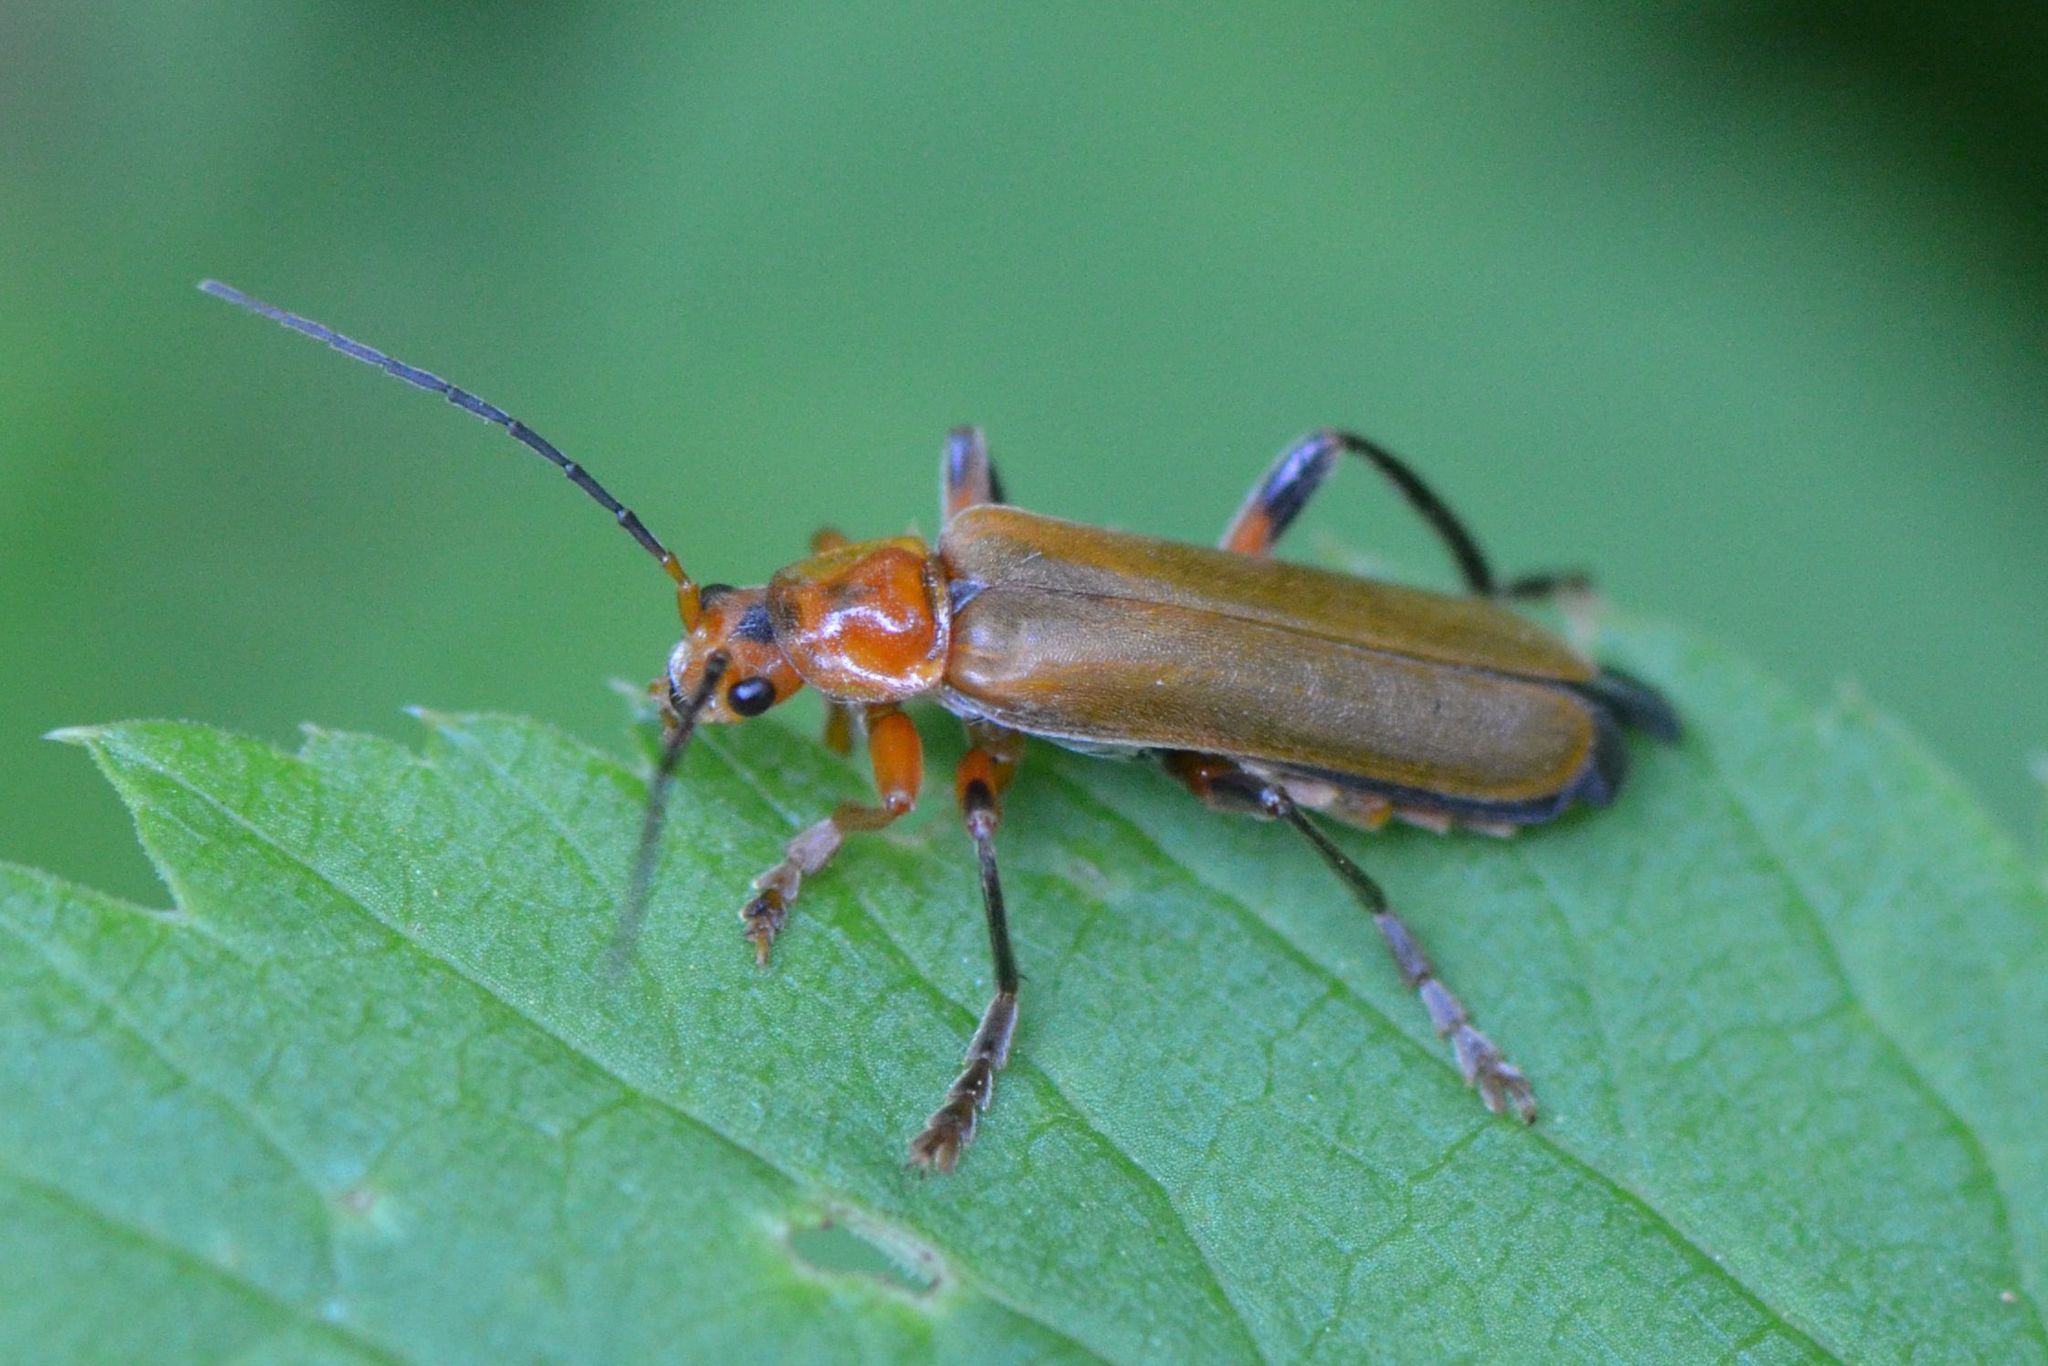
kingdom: Animalia
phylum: Arthropoda
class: Insecta
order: Coleoptera
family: Cantharidae
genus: Cantharis
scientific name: Cantharis livida
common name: Livid soldier beetle
